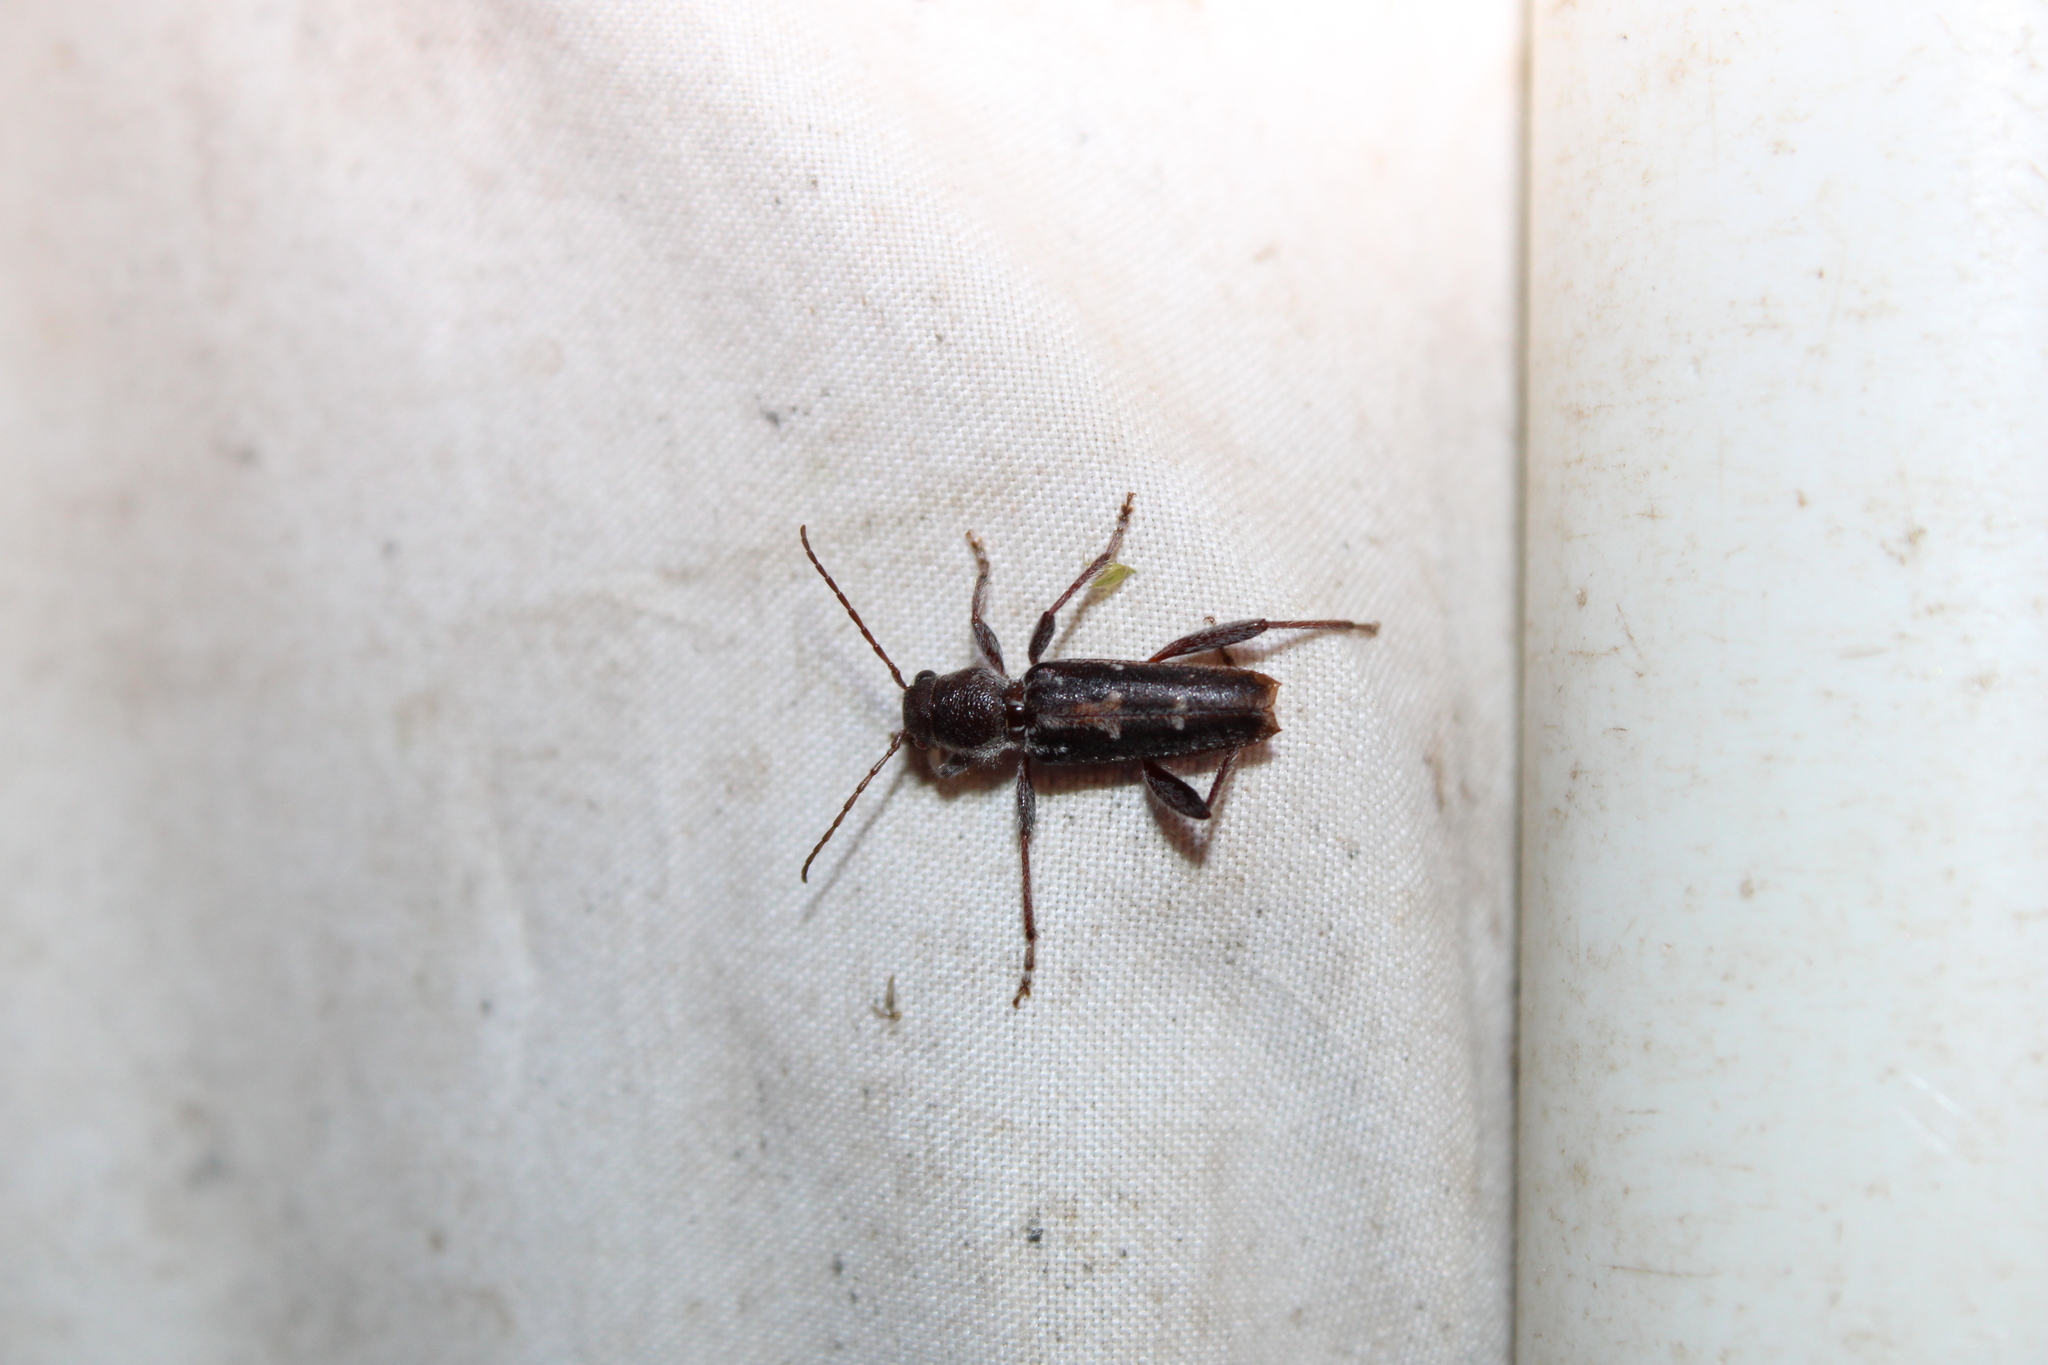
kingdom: Animalia
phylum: Arthropoda
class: Insecta
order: Coleoptera
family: Cerambycidae
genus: Xylotrechus
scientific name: Xylotrechus sagittatus
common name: Arrowhead borer
